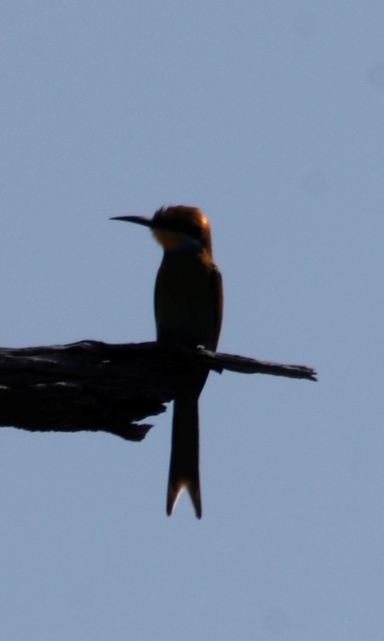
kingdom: Animalia
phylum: Chordata
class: Aves
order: Coraciiformes
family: Meropidae
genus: Merops
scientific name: Merops hirundineus
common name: Swallow-tailed bee-eater
